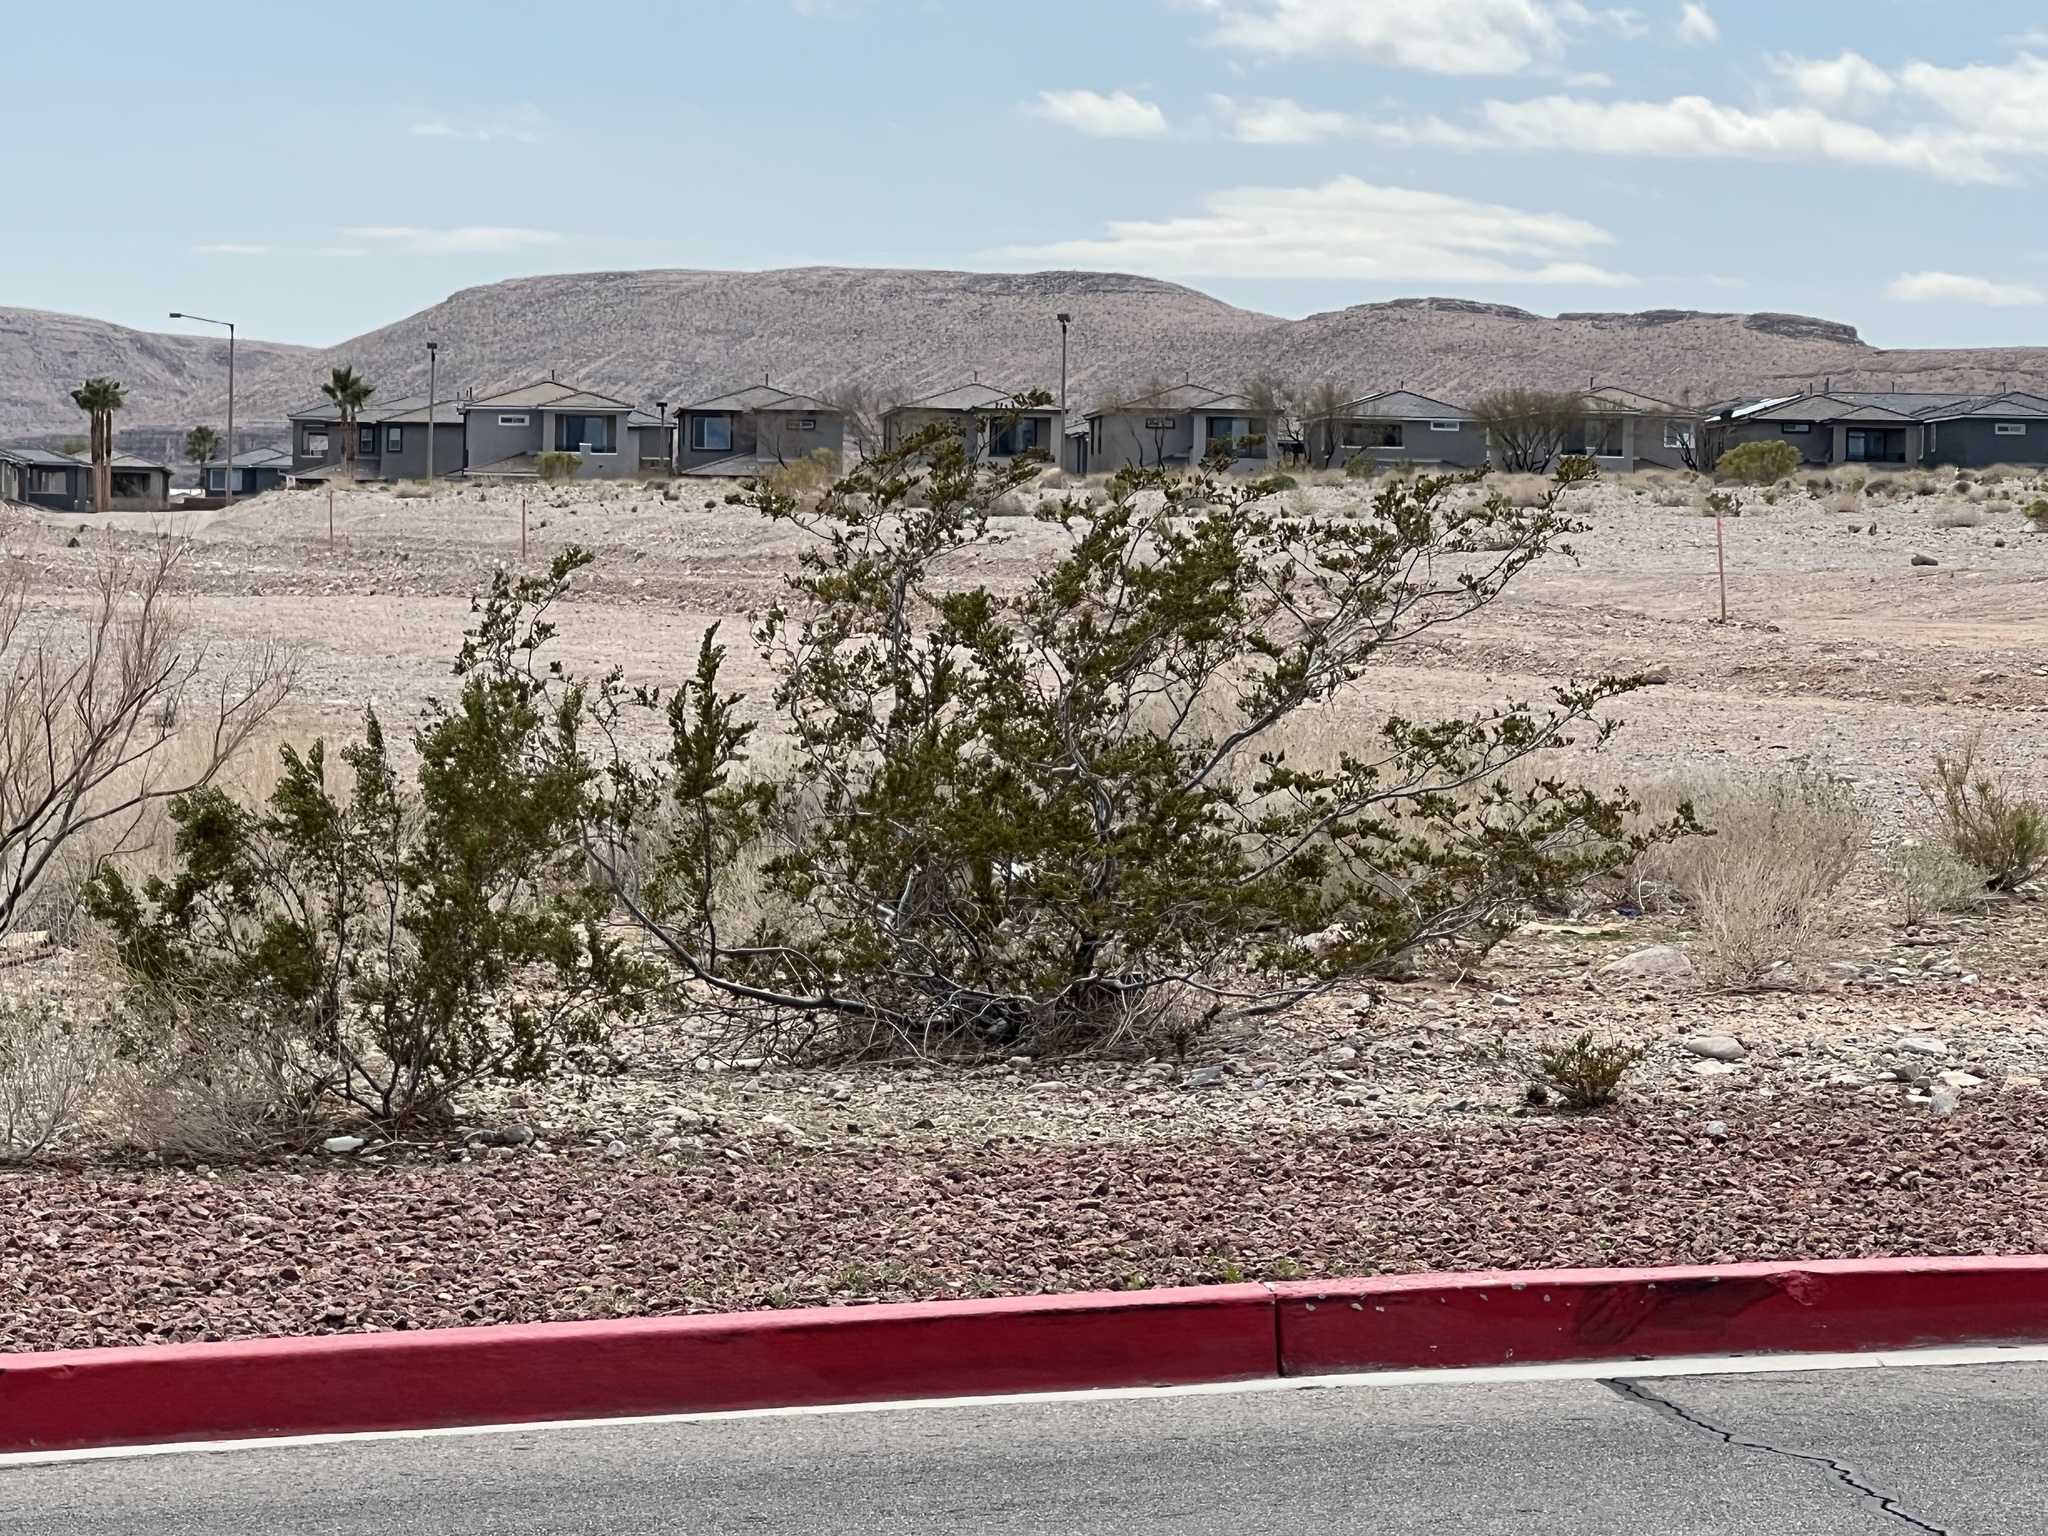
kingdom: Plantae
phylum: Tracheophyta
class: Magnoliopsida
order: Zygophyllales
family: Zygophyllaceae
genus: Larrea
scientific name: Larrea tridentata
